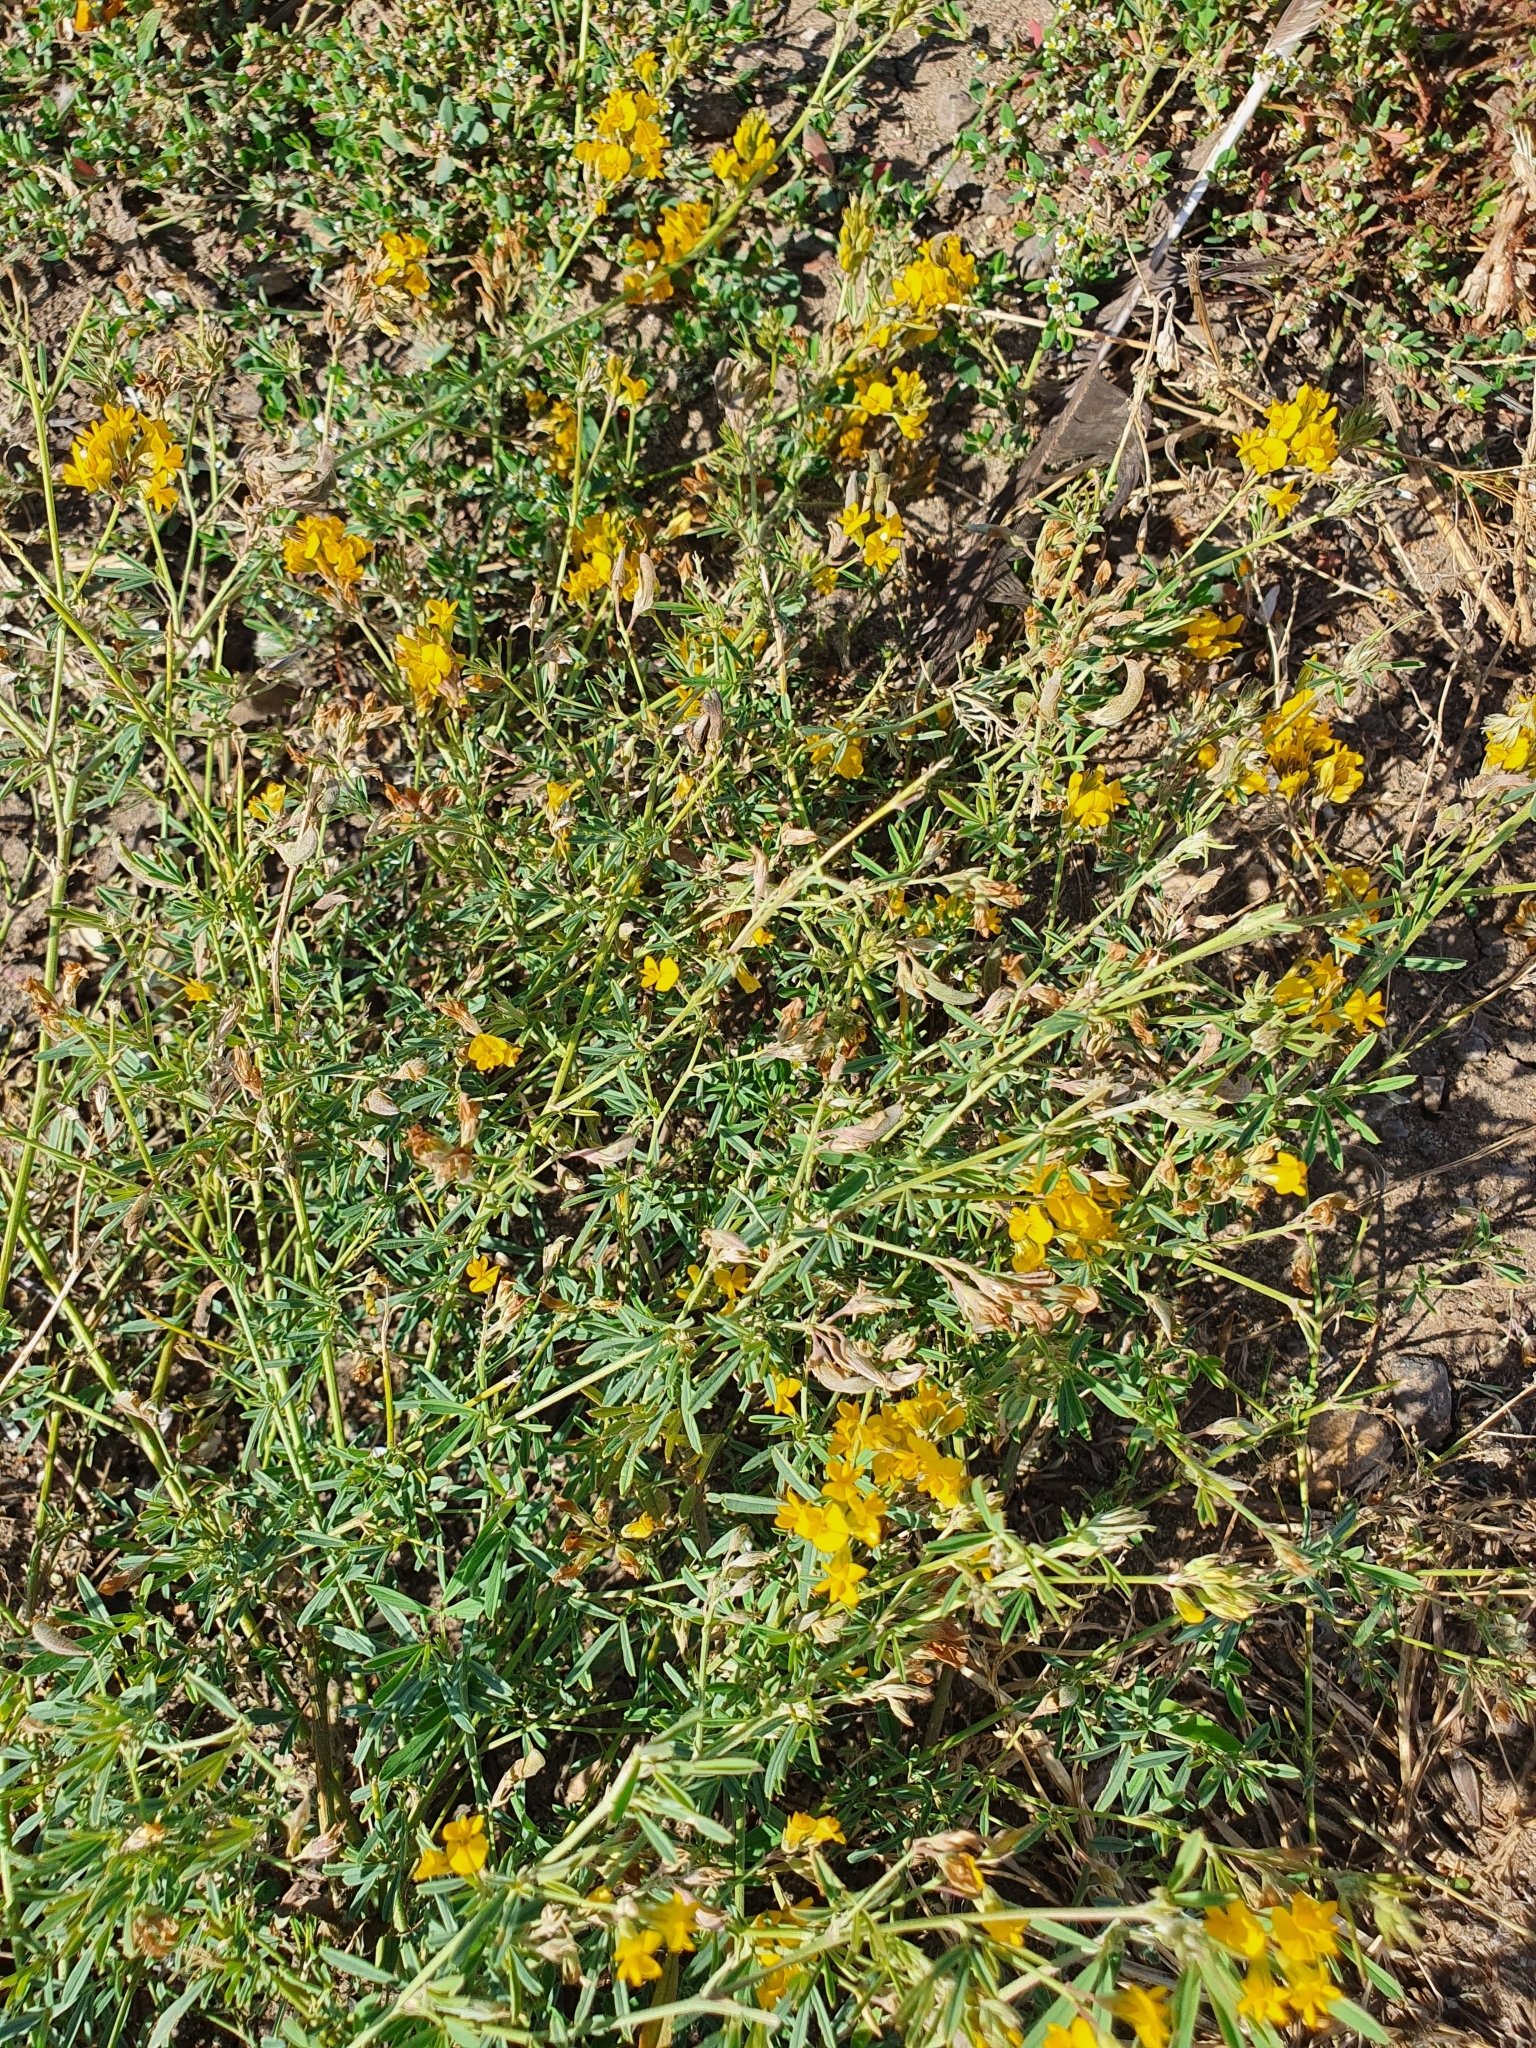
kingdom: Plantae
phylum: Tracheophyta
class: Magnoliopsida
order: Fabales
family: Fabaceae
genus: Medicago
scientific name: Medicago falcata
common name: Sickle medick
